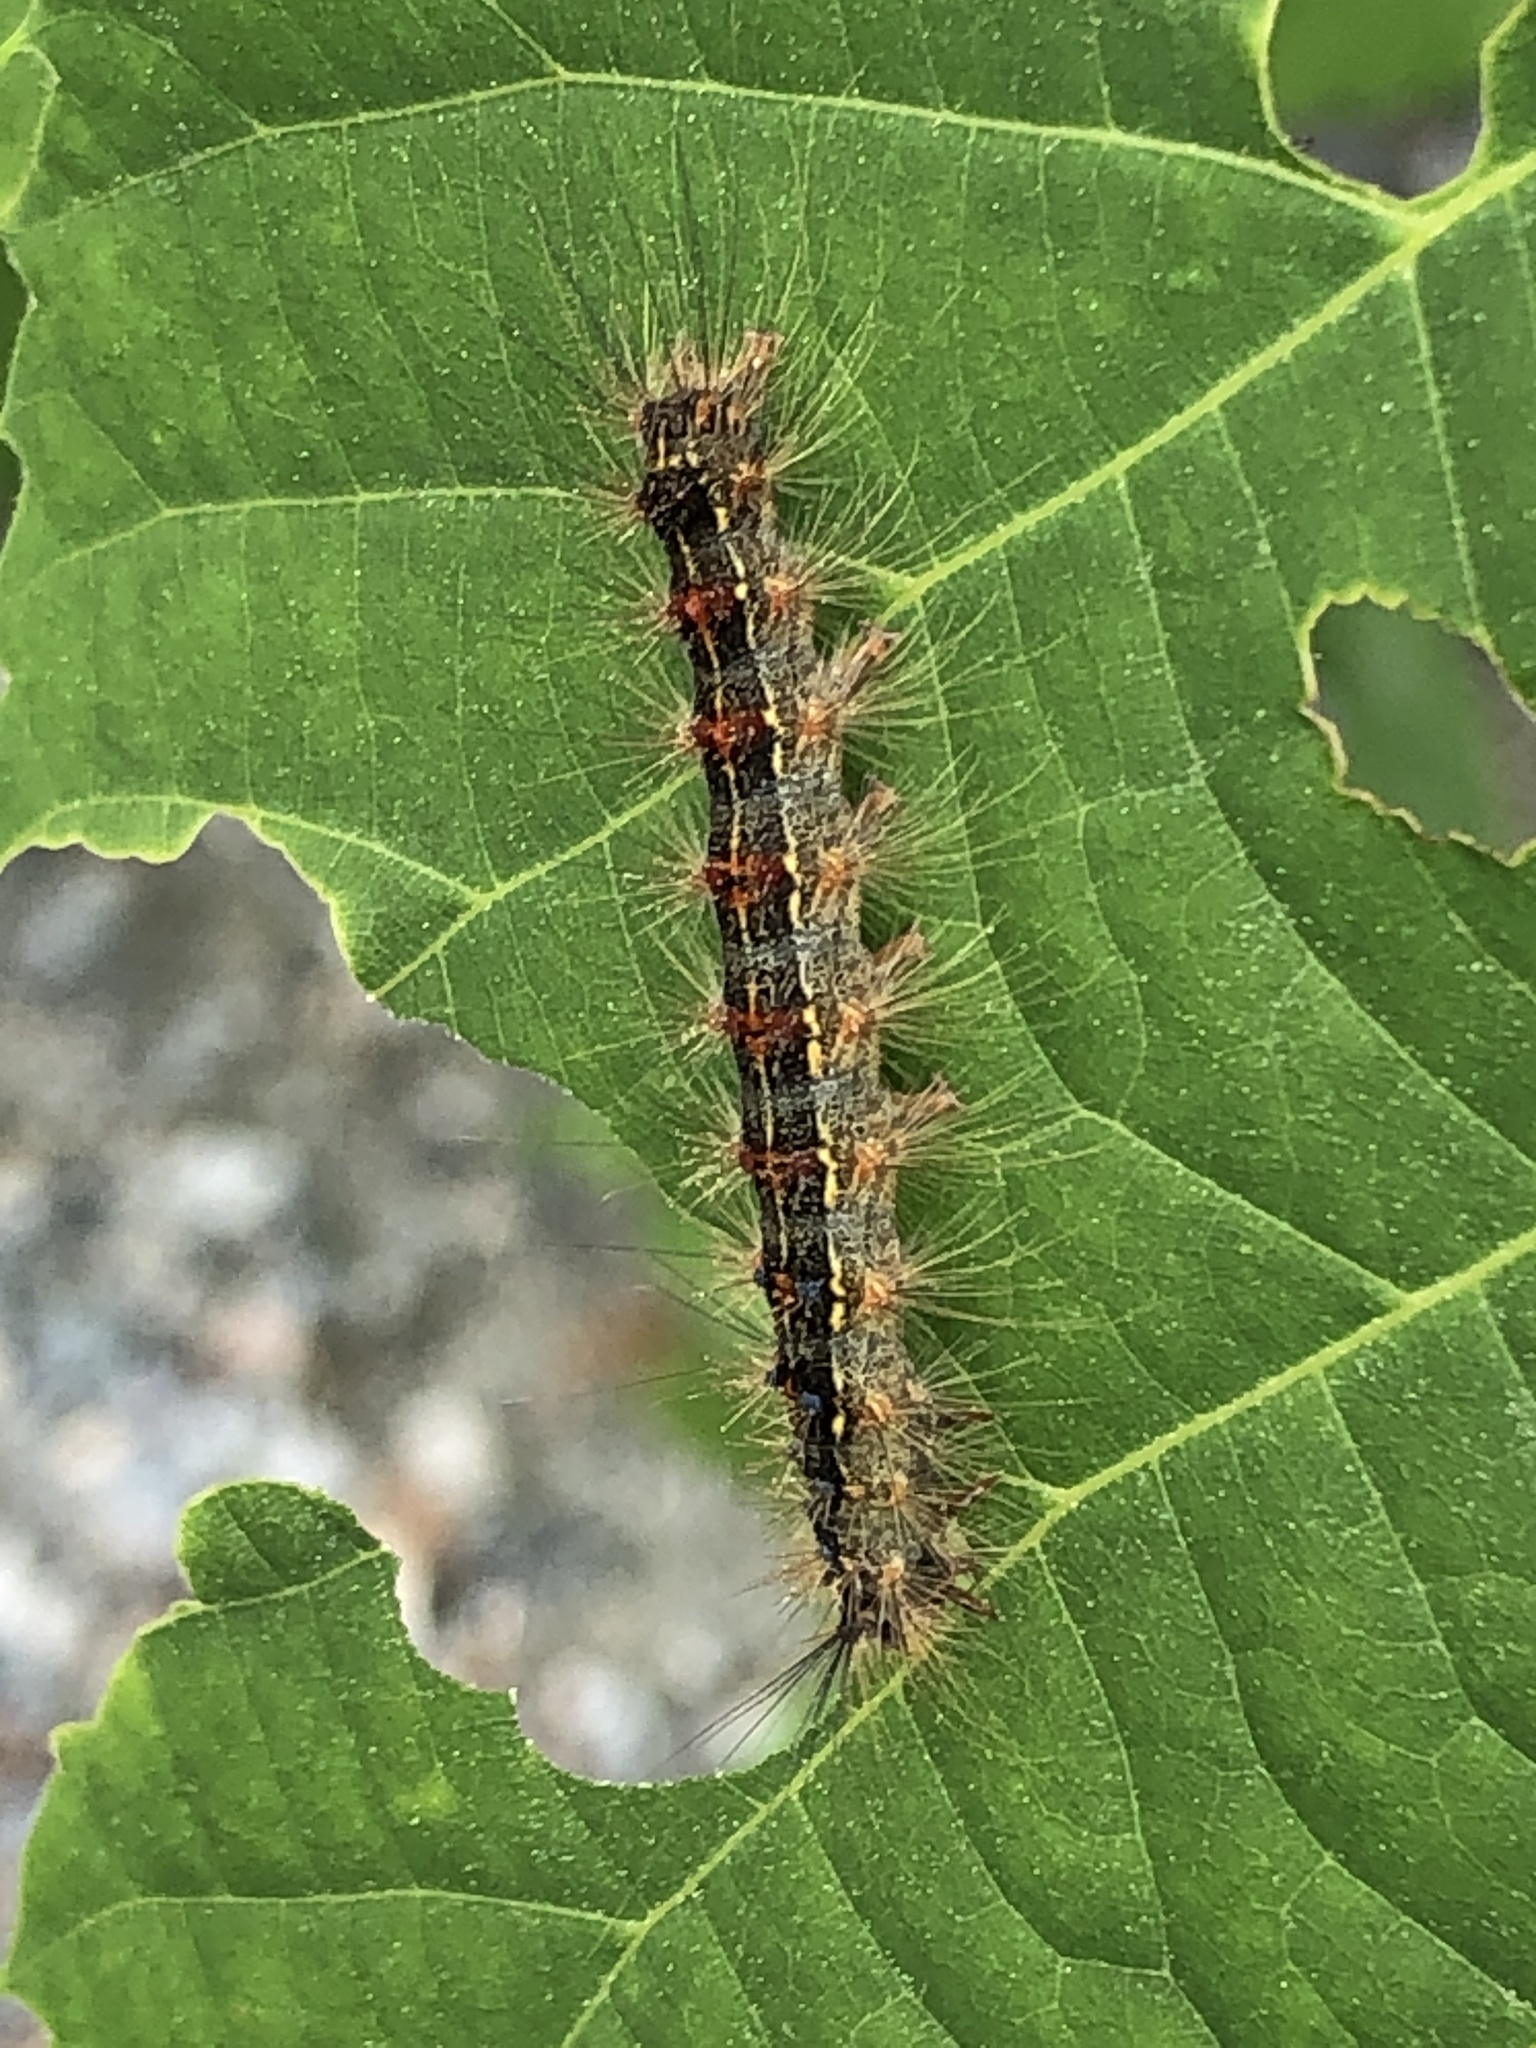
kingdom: Animalia
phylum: Arthropoda
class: Insecta
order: Lepidoptera
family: Erebidae
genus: Lymantria
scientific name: Lymantria dispar
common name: Gypsy moth
